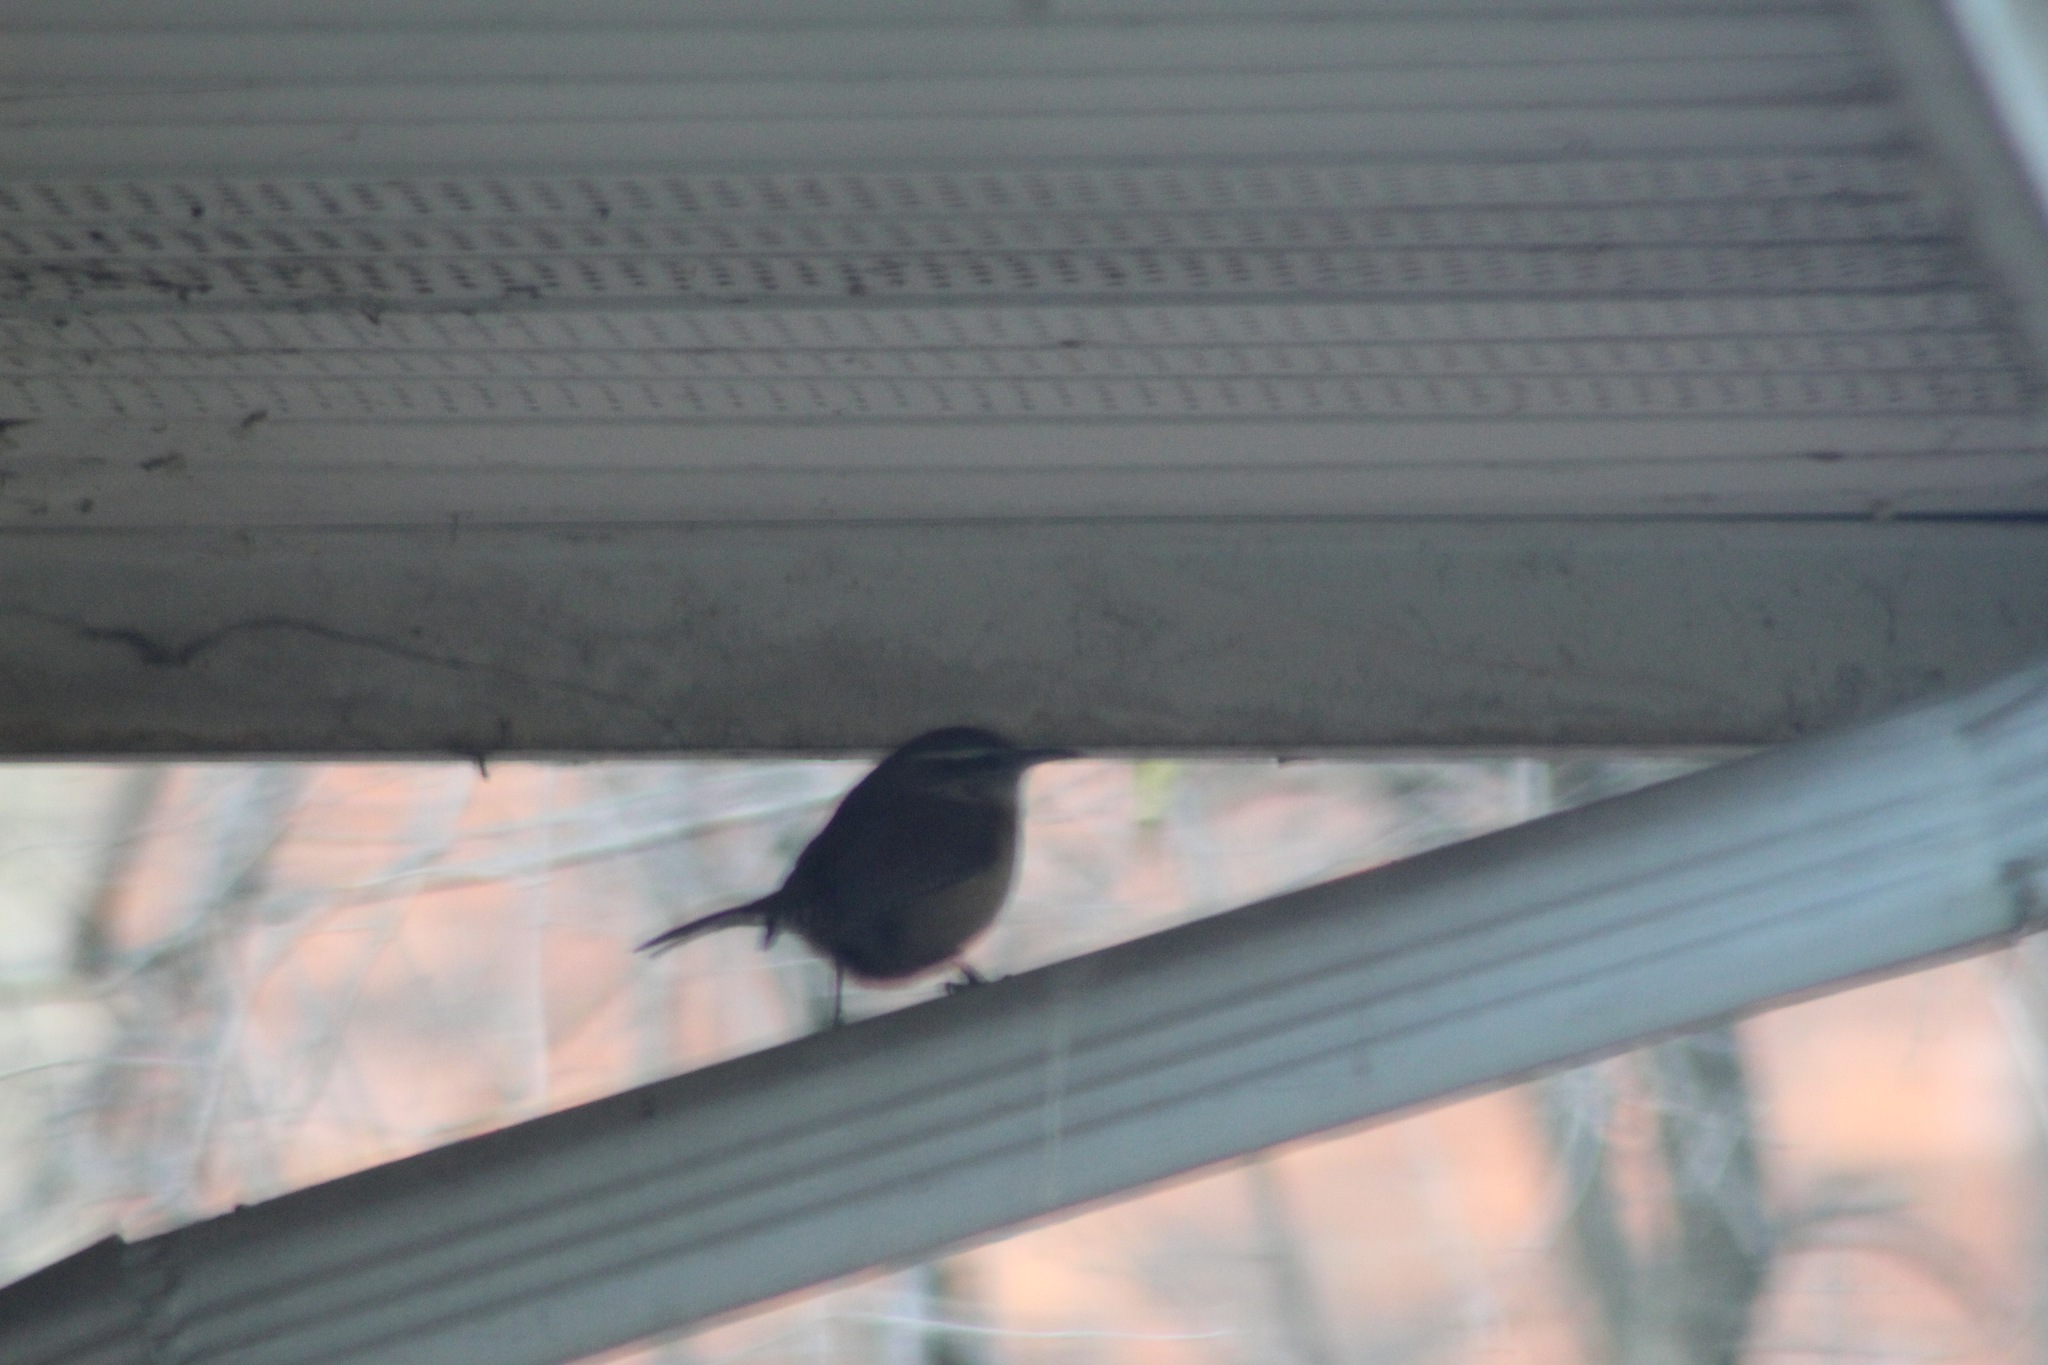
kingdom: Animalia
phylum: Chordata
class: Aves
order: Passeriformes
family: Troglodytidae
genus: Thryothorus
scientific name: Thryothorus ludovicianus
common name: Carolina wren
